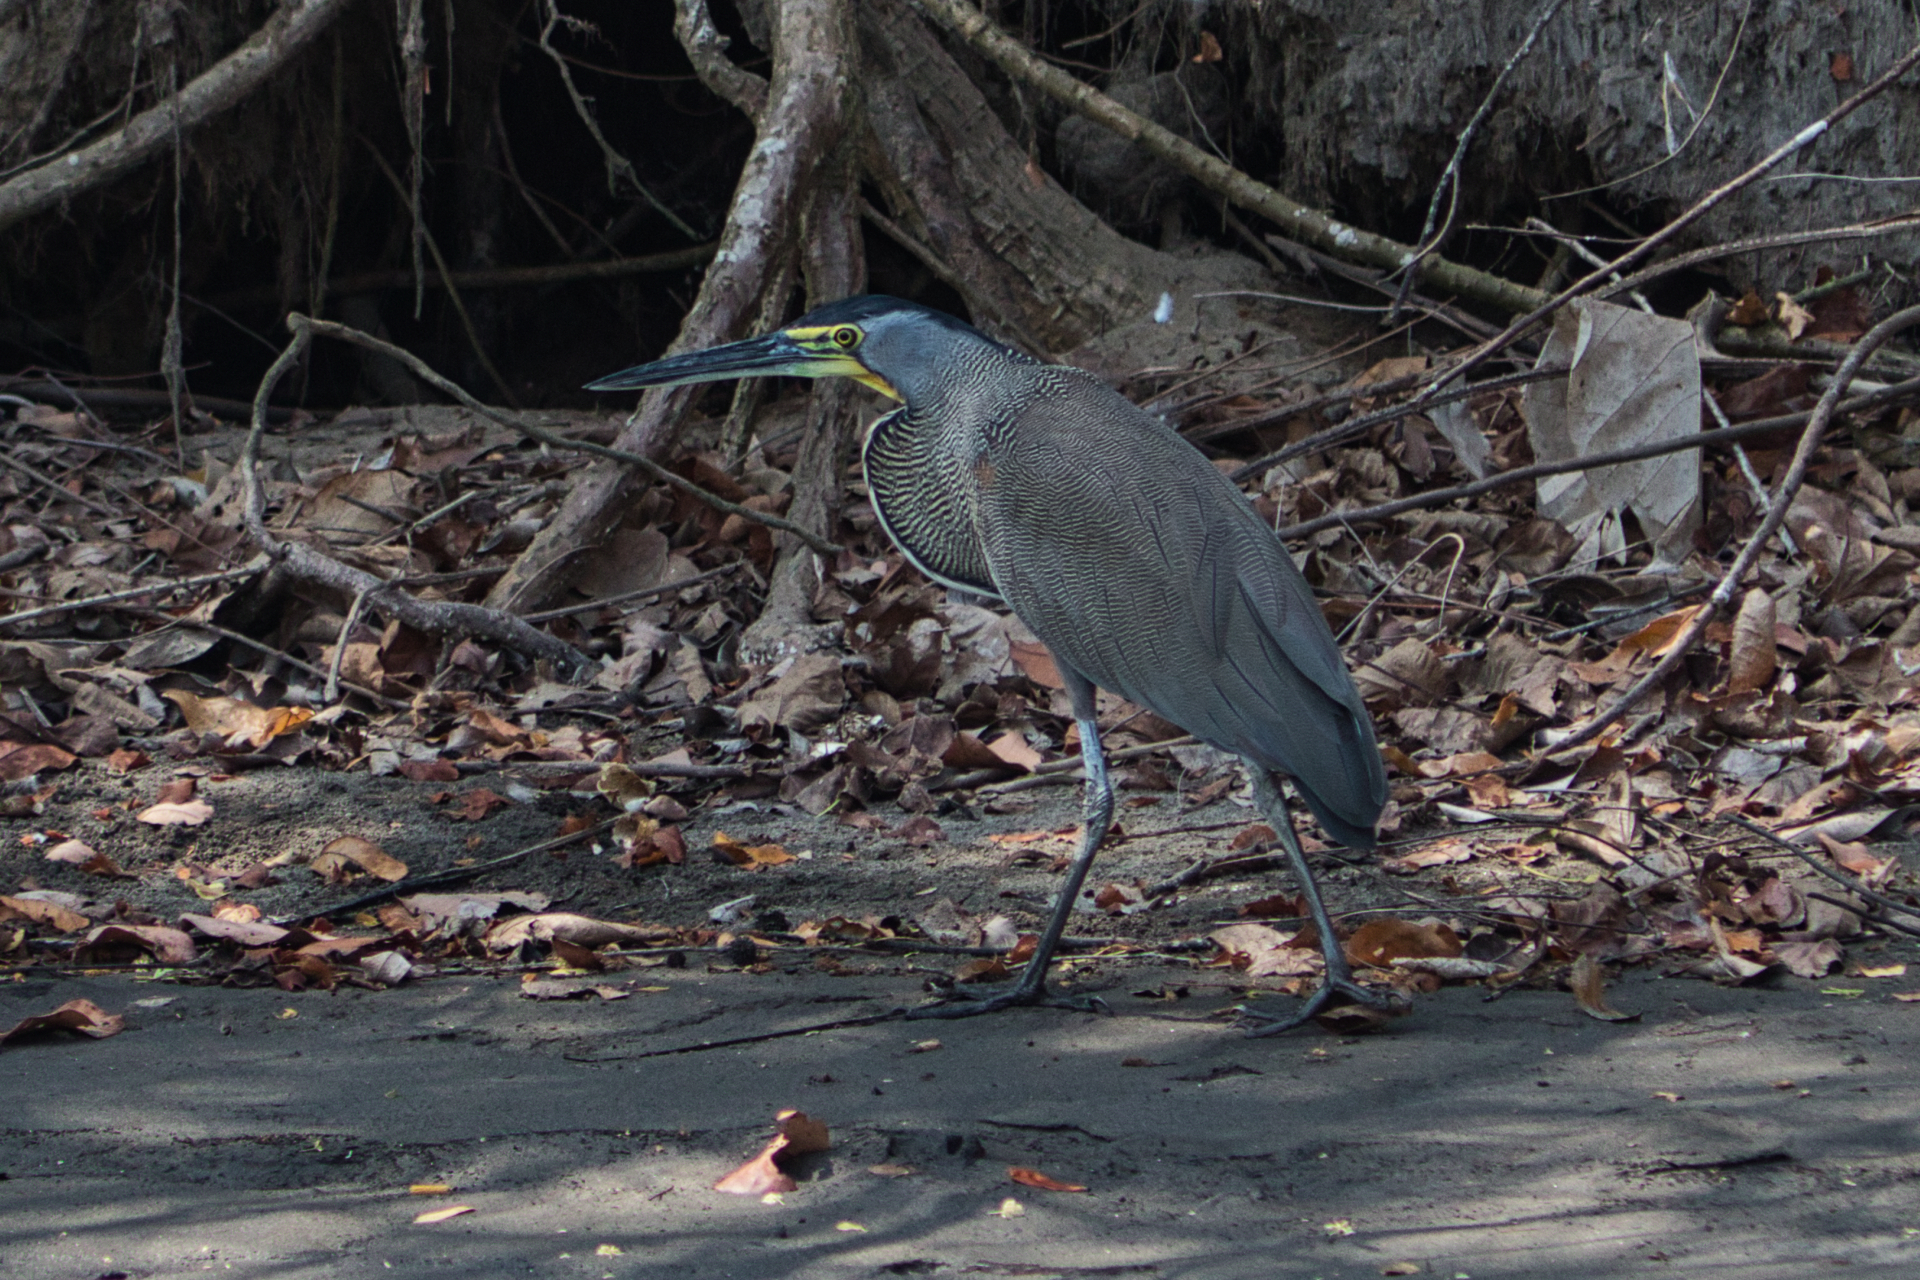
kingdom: Animalia
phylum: Chordata
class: Aves
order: Pelecaniformes
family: Ardeidae
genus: Tigrisoma
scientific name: Tigrisoma mexicanum
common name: Bare-throated tiger-heron
